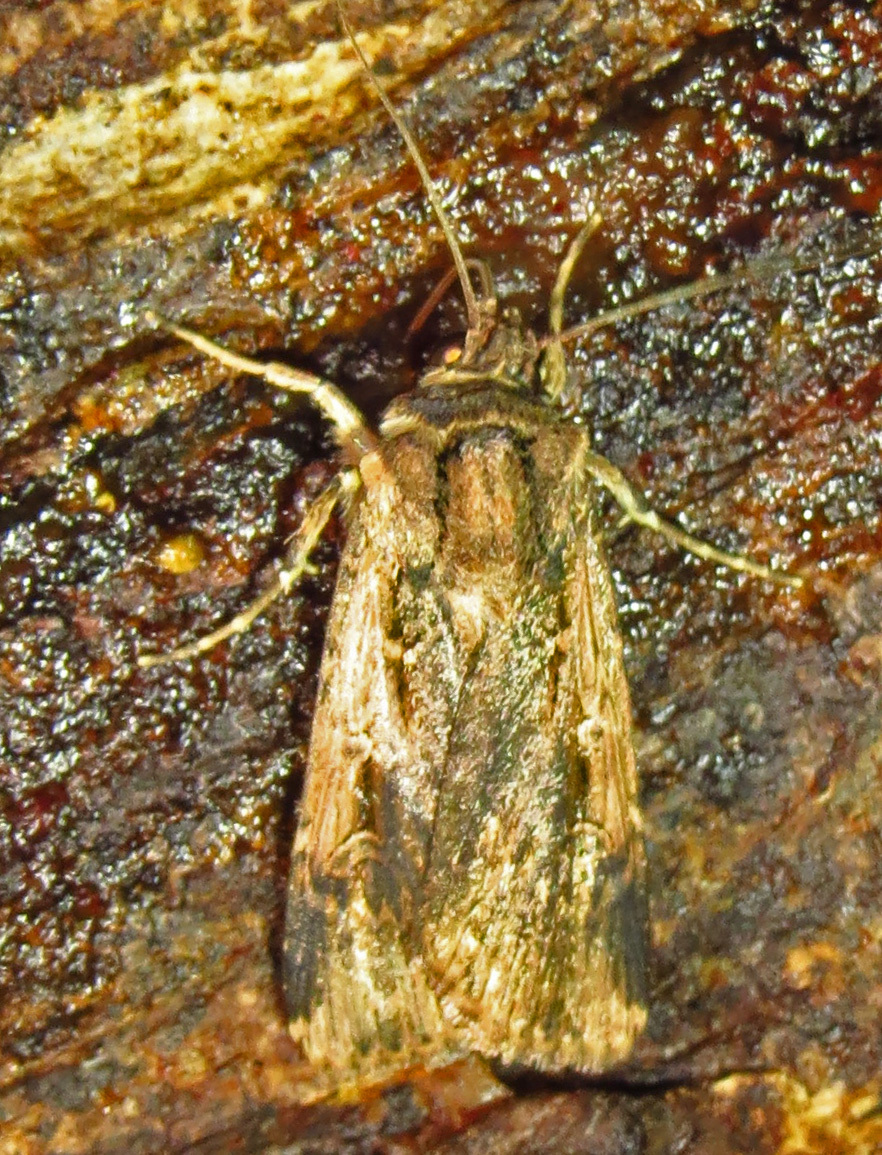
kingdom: Animalia
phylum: Arthropoda
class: Insecta
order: Lepidoptera
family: Noctuidae
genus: Feltia
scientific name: Feltia subterranea
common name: Granulate cutworm
